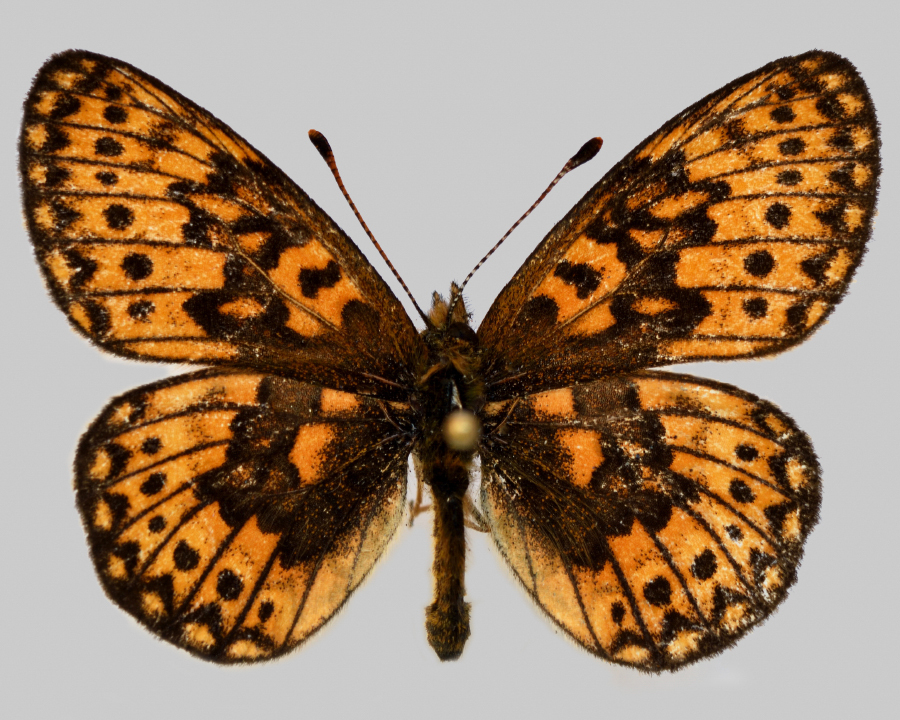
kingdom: Animalia
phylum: Arthropoda
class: Insecta
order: Lepidoptera
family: Nymphalidae
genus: Boloria
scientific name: Boloria eunomia
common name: Bog fritillary
